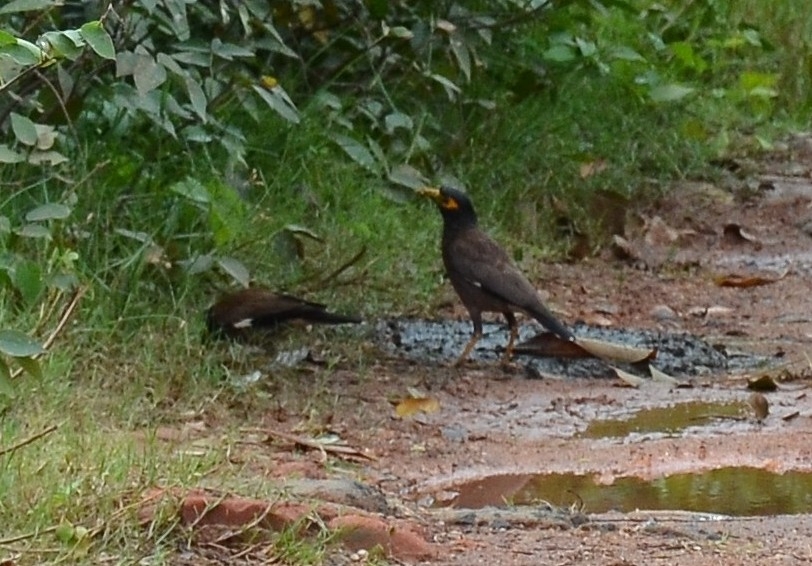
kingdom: Animalia
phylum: Chordata
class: Aves
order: Passeriformes
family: Sturnidae
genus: Acridotheres
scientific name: Acridotheres tristis
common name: Common myna
